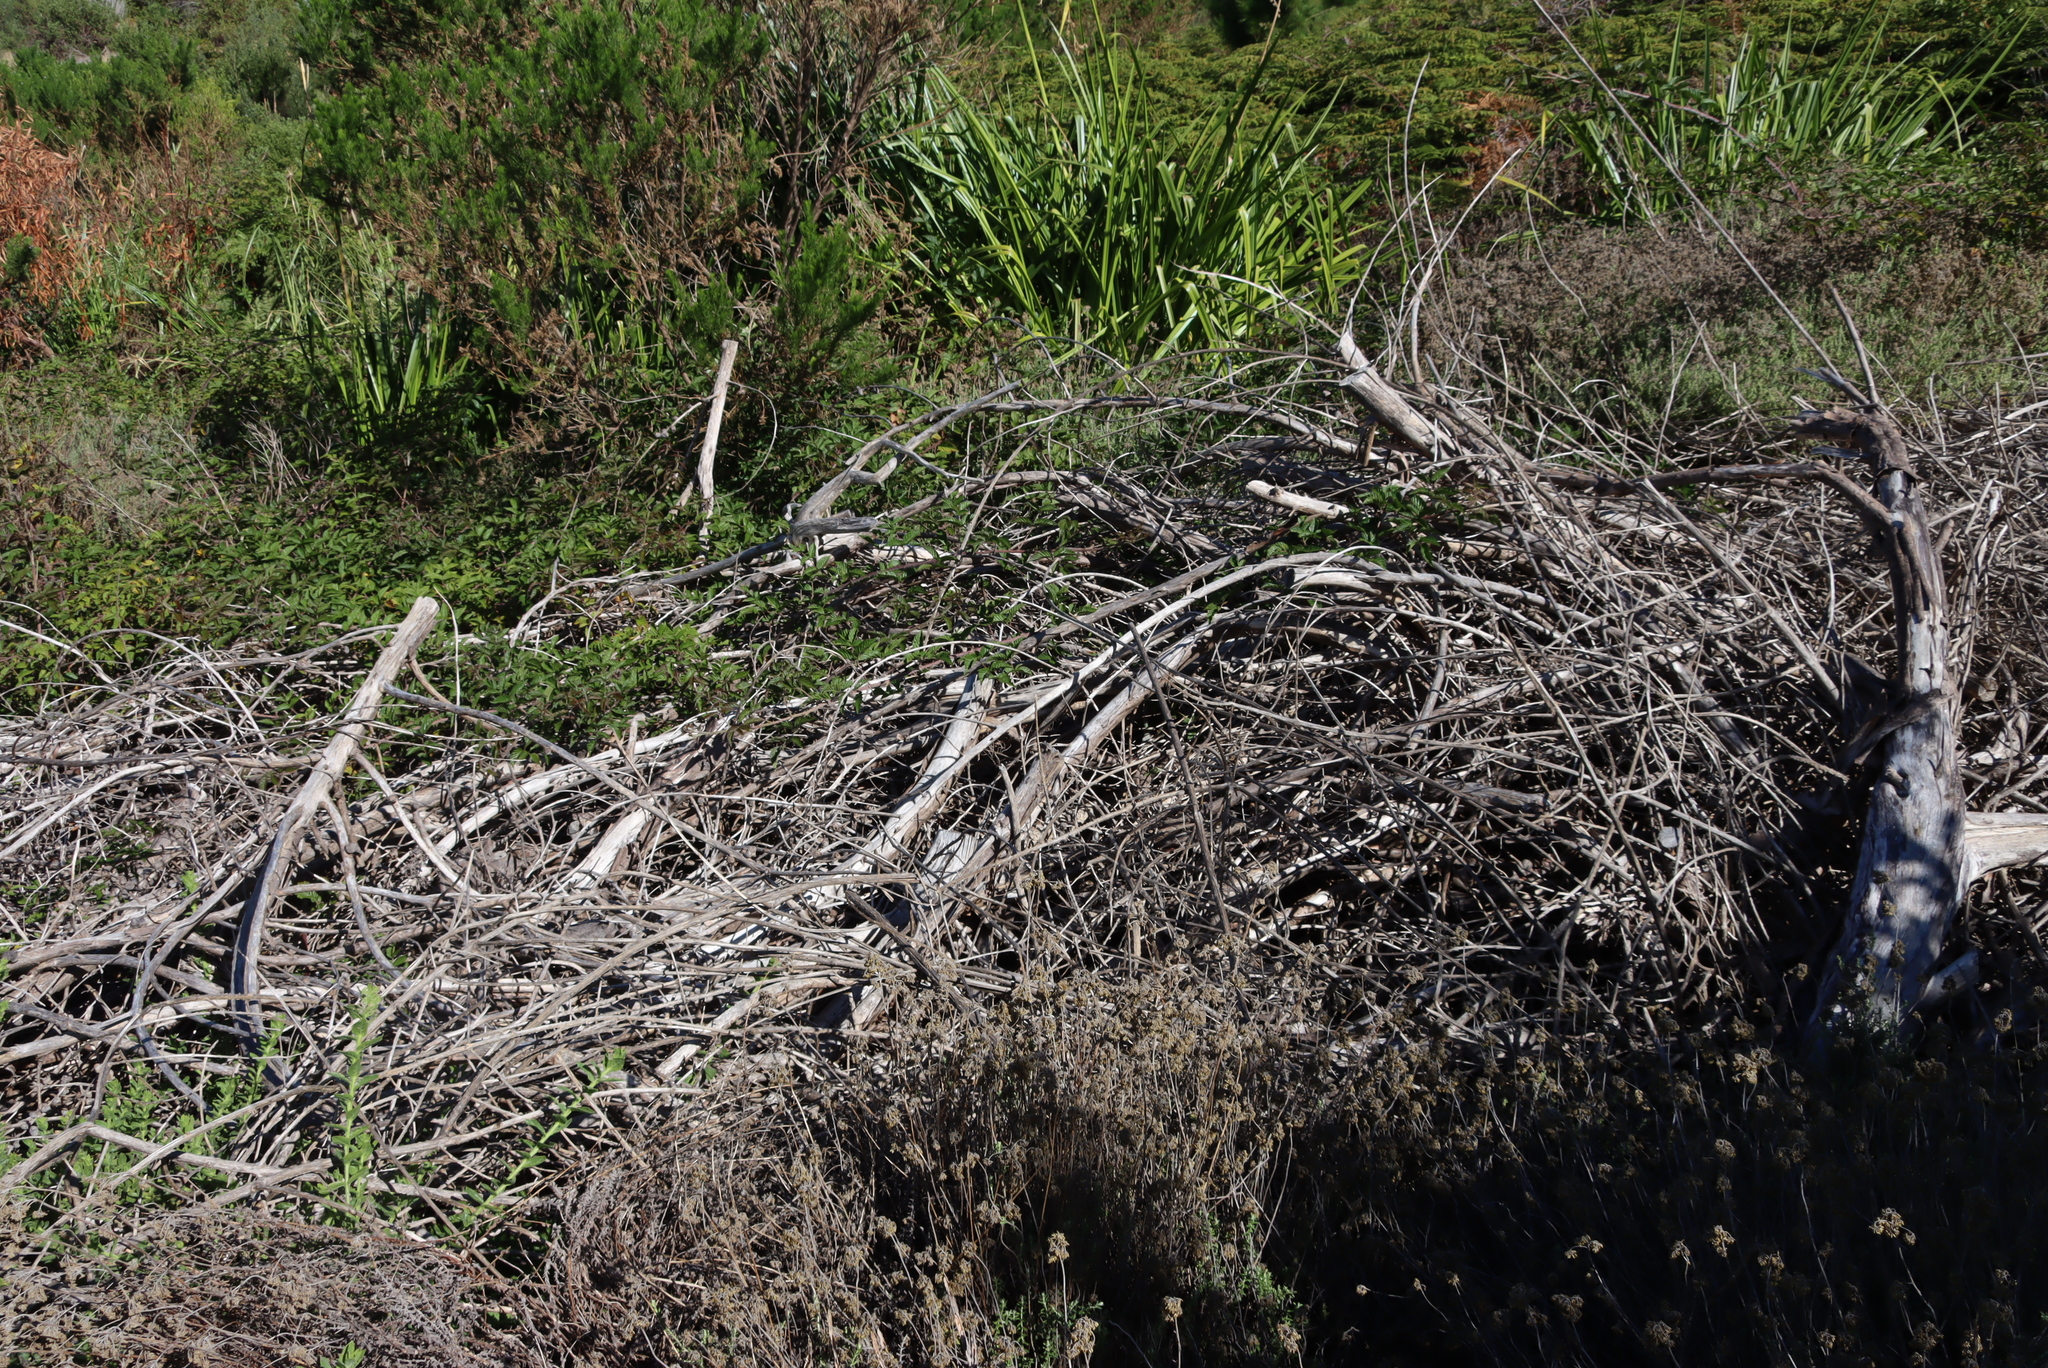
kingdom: Plantae
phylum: Tracheophyta
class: Magnoliopsida
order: Rosales
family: Rosaceae
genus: Rubus
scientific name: Rubus affinis
